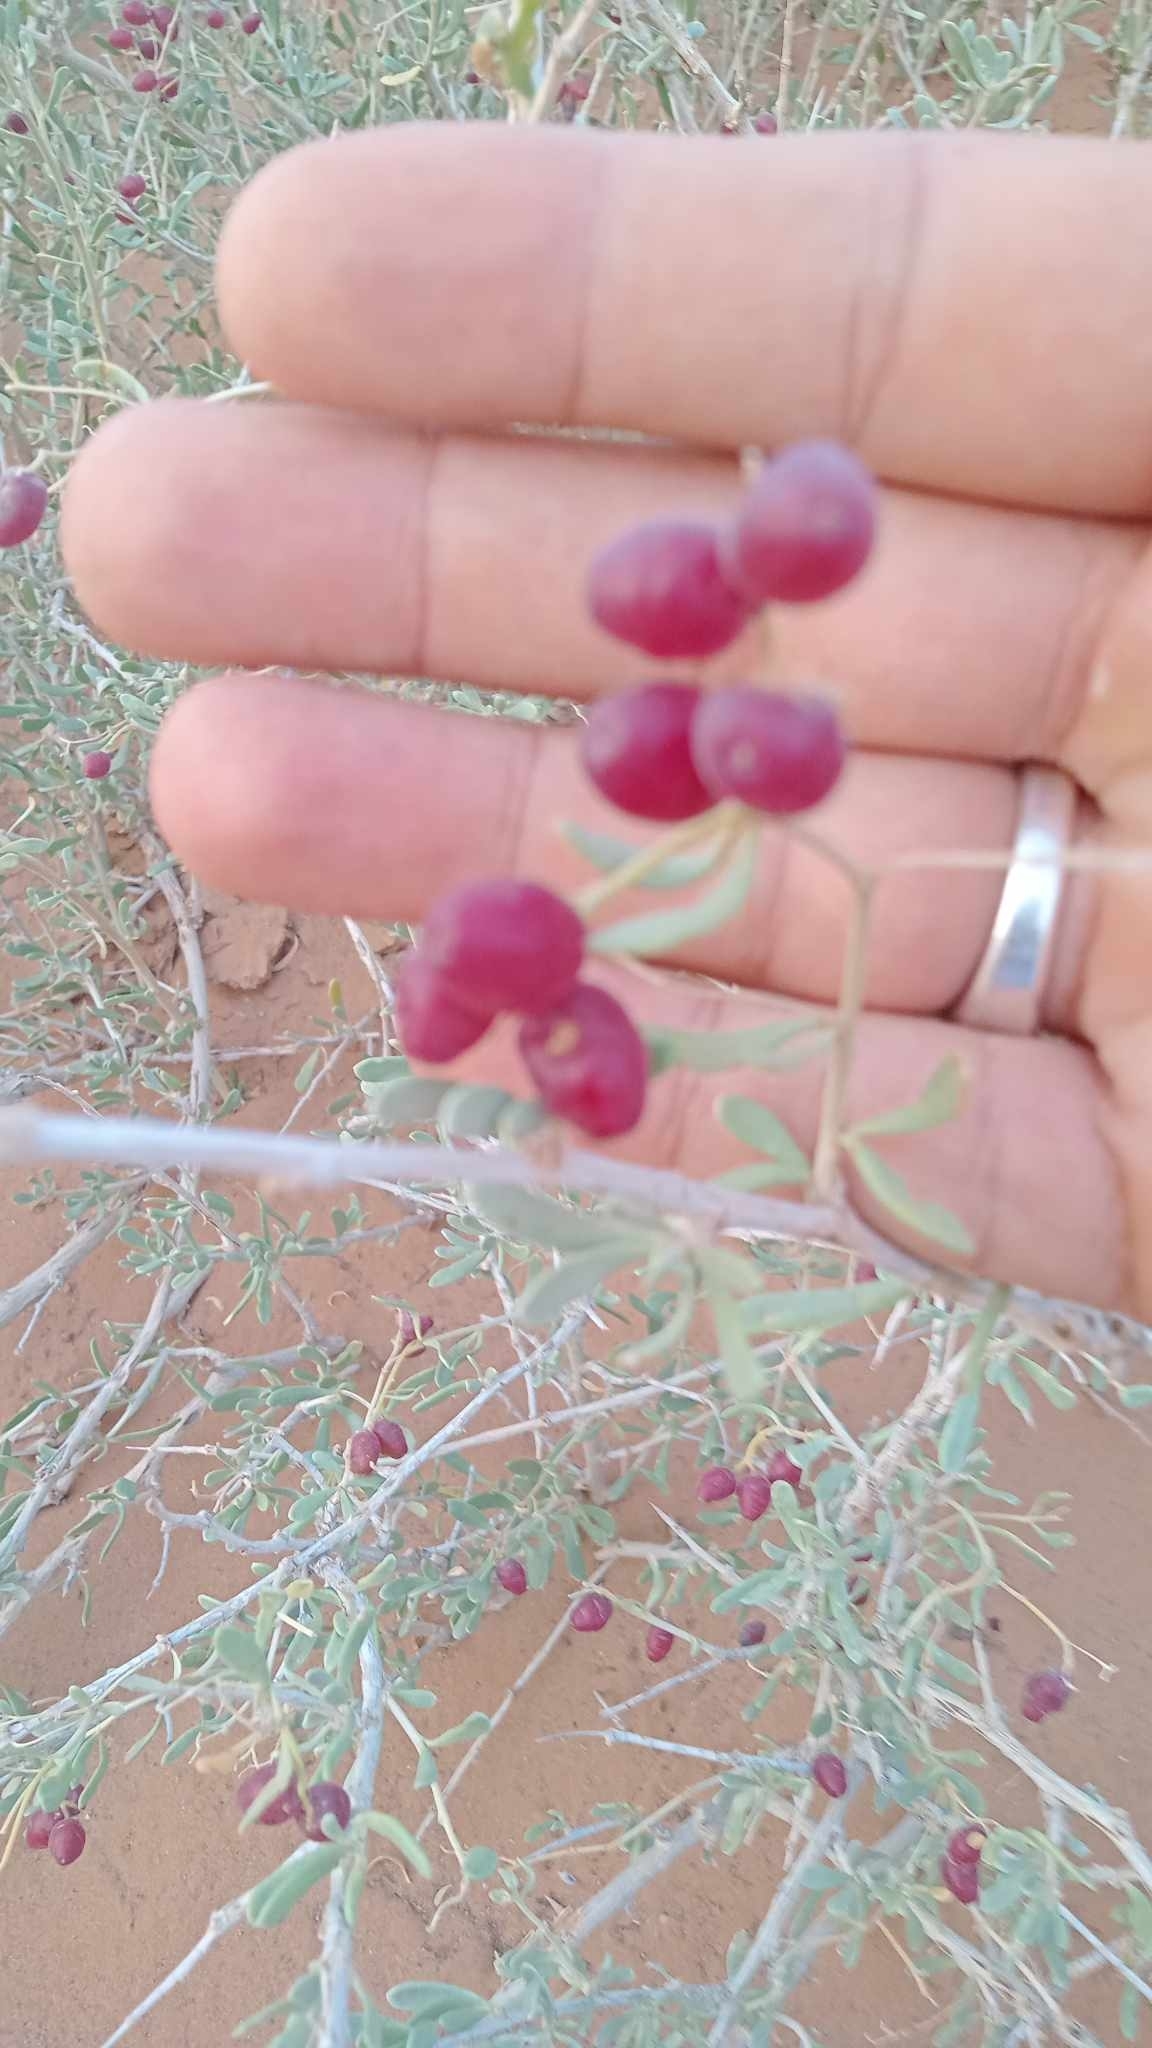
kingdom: Plantae
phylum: Tracheophyta
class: Magnoliopsida
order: Sapindales
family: Nitrariaceae
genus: Nitraria
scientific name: Nitraria retusa
